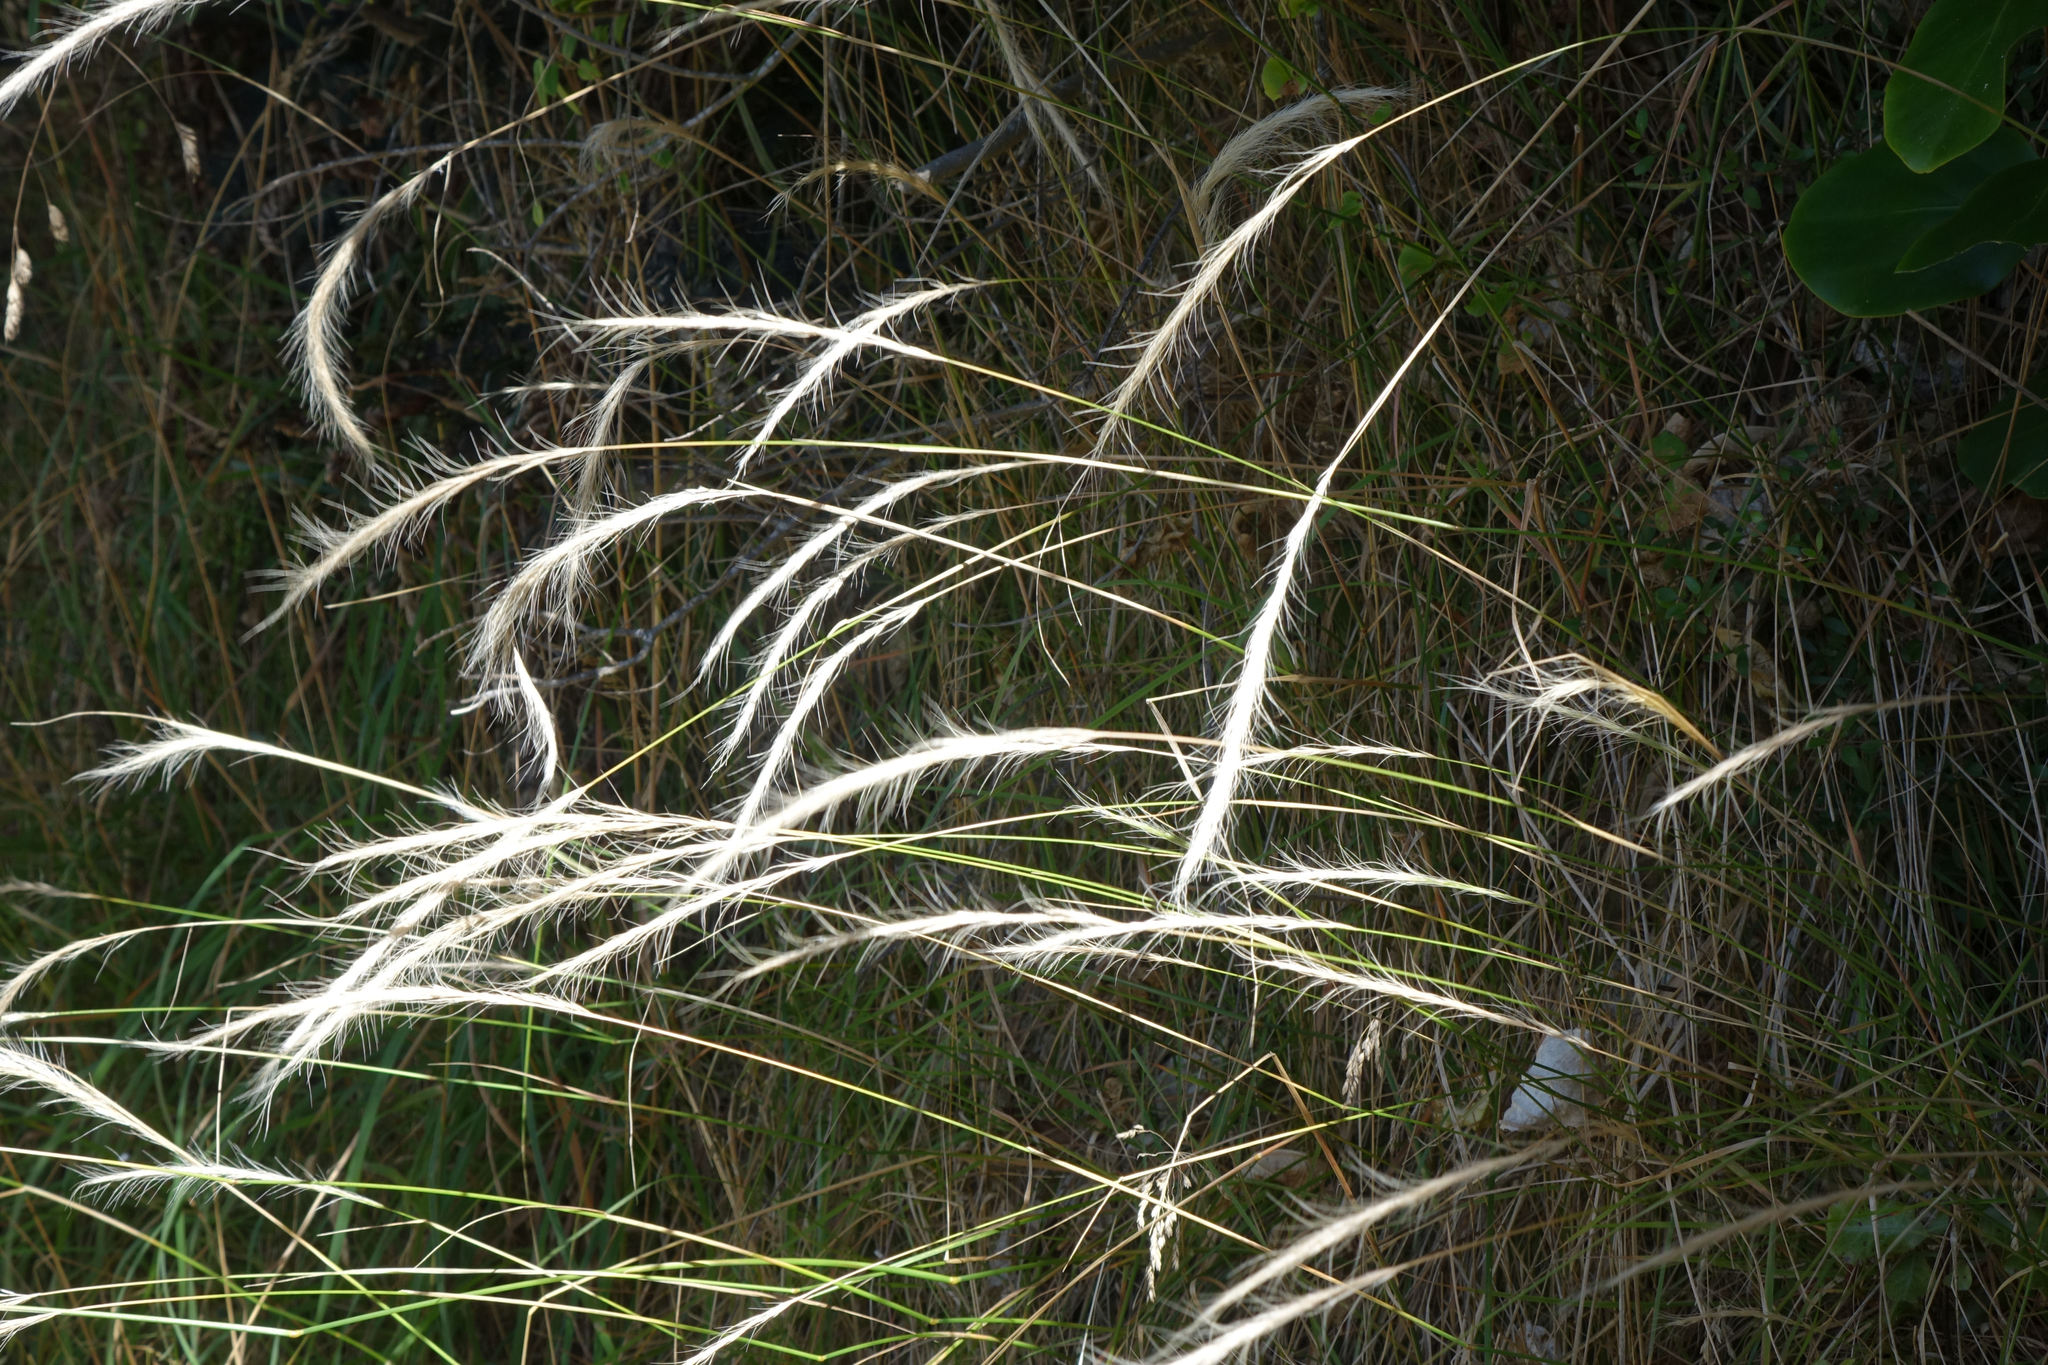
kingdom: Plantae
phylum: Tracheophyta
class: Liliopsida
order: Poales
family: Poaceae
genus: Dichelachne
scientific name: Dichelachne crinita
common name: Clovenfoot plumegrass
